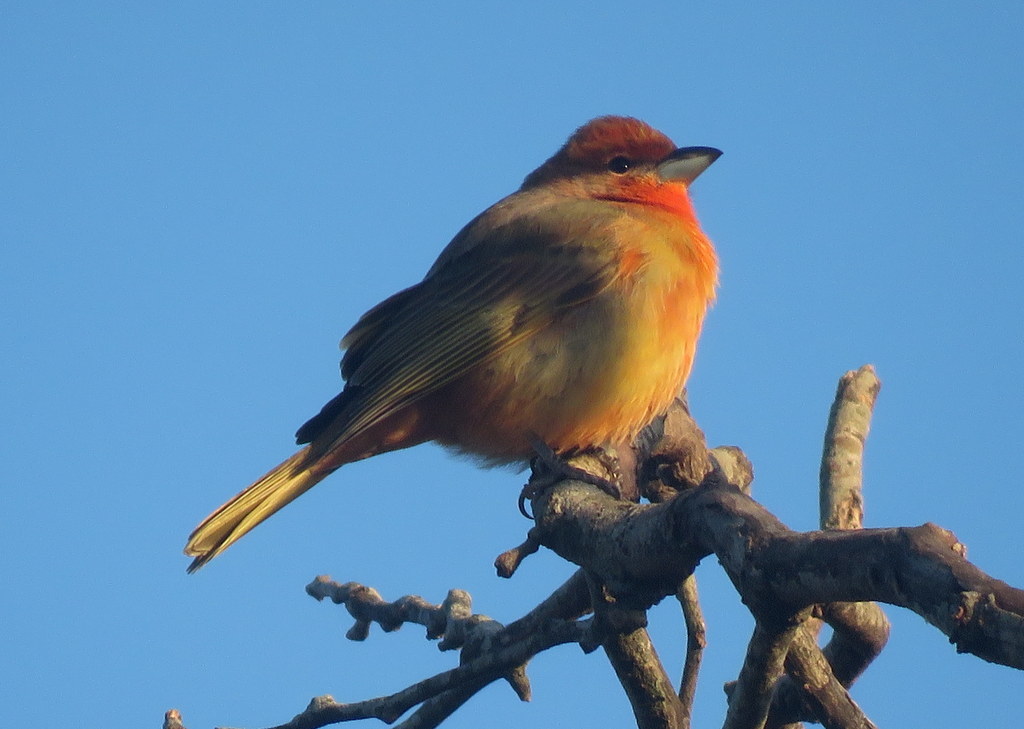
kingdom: Animalia
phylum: Chordata
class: Aves
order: Passeriformes
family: Cardinalidae
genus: Piranga
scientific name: Piranga flava
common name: Red tanager
